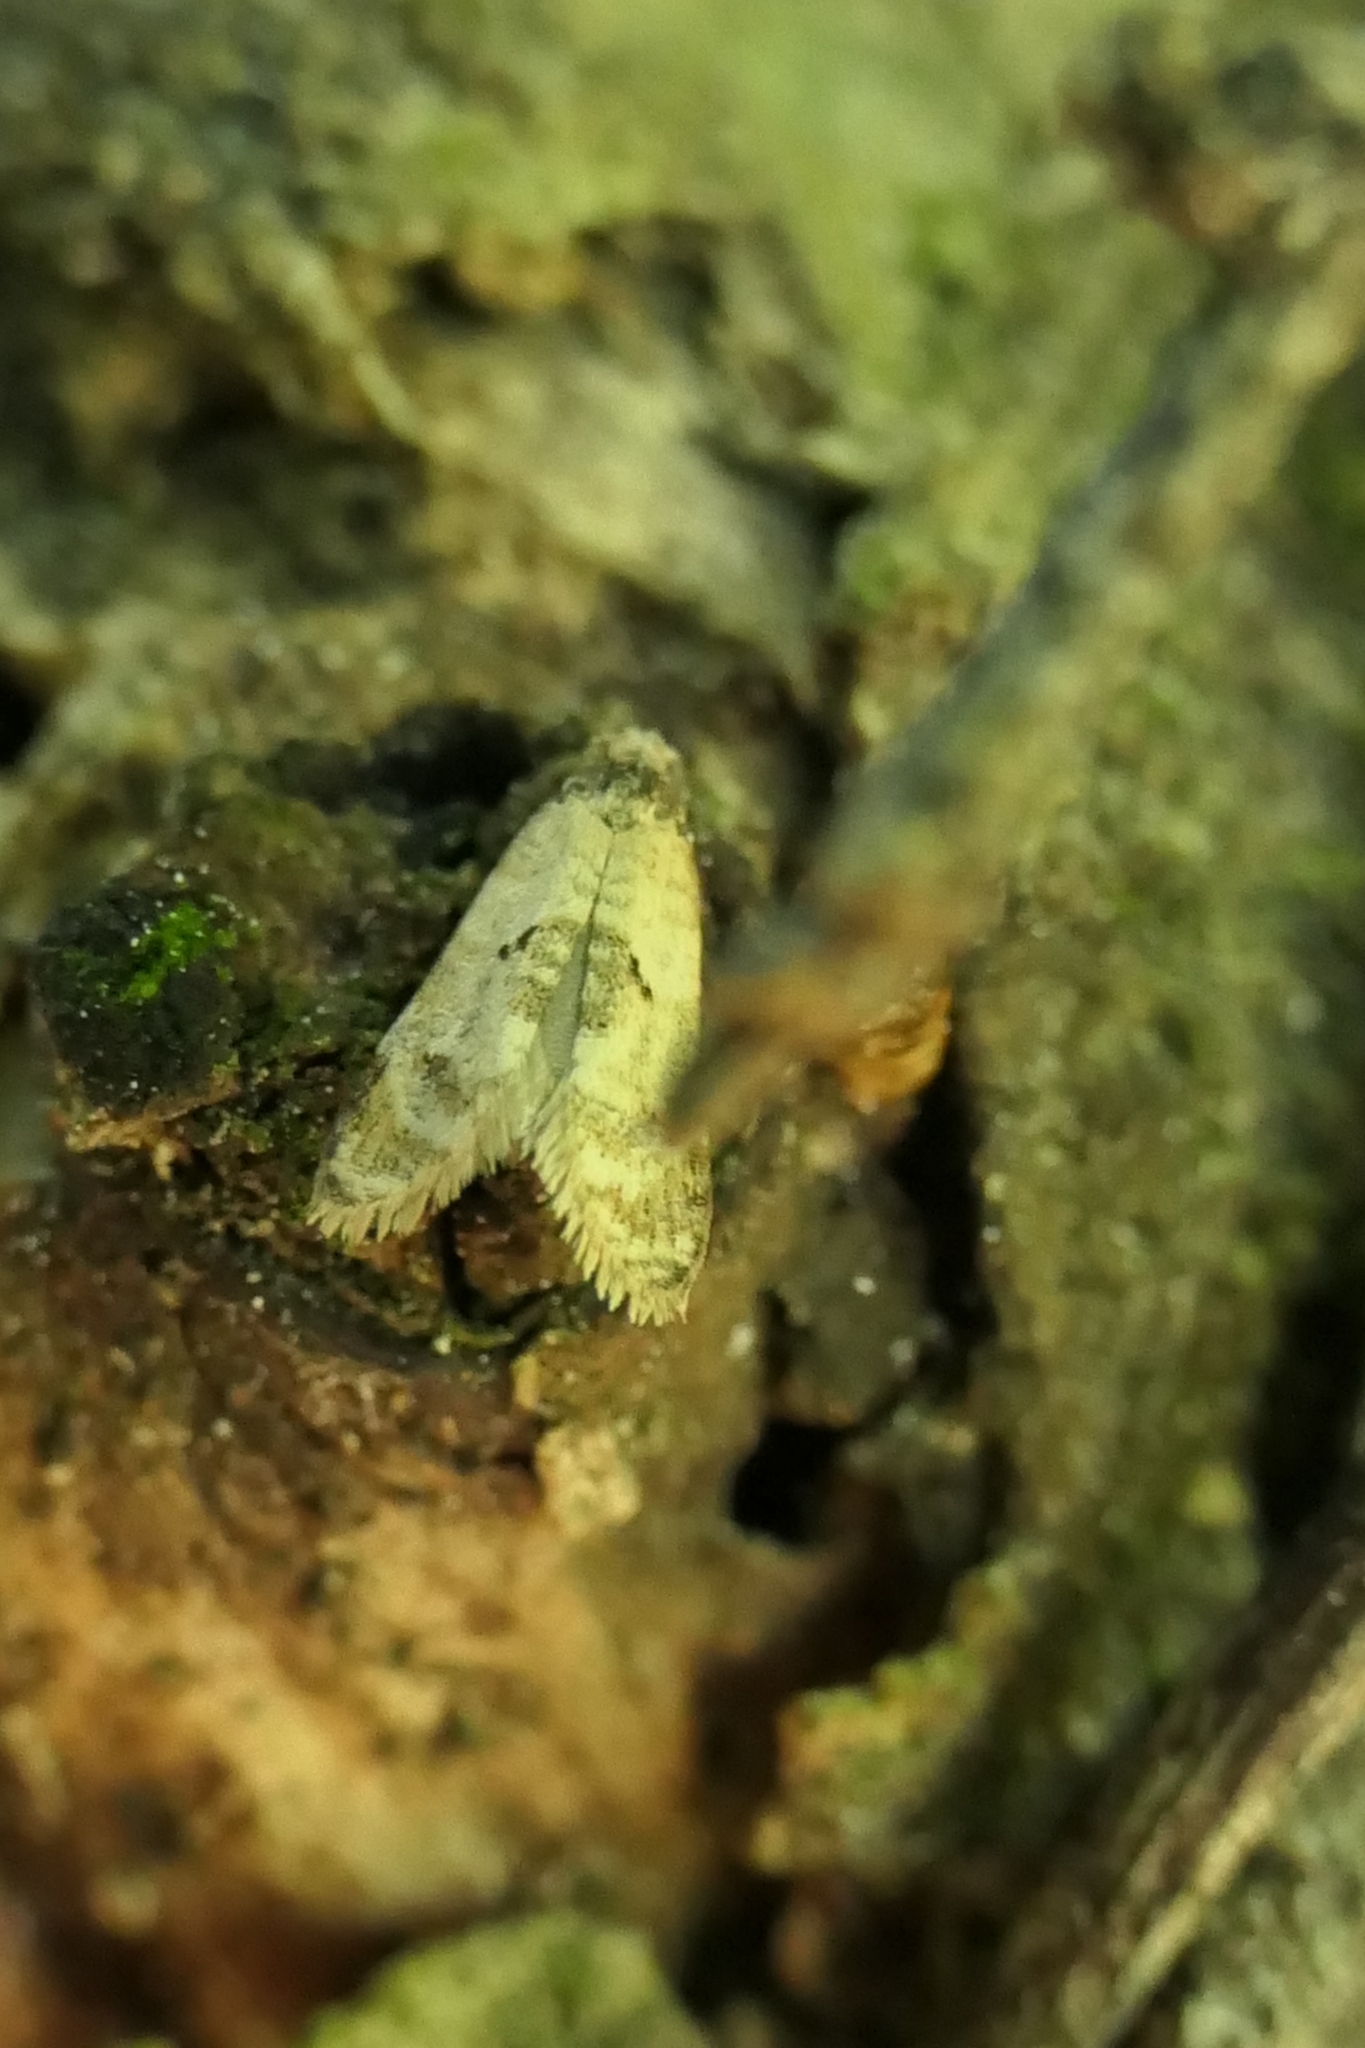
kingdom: Animalia
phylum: Arthropoda
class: Insecta
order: Lepidoptera
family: Tortricidae
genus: Dipterina
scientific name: Dipterina imbriferana
